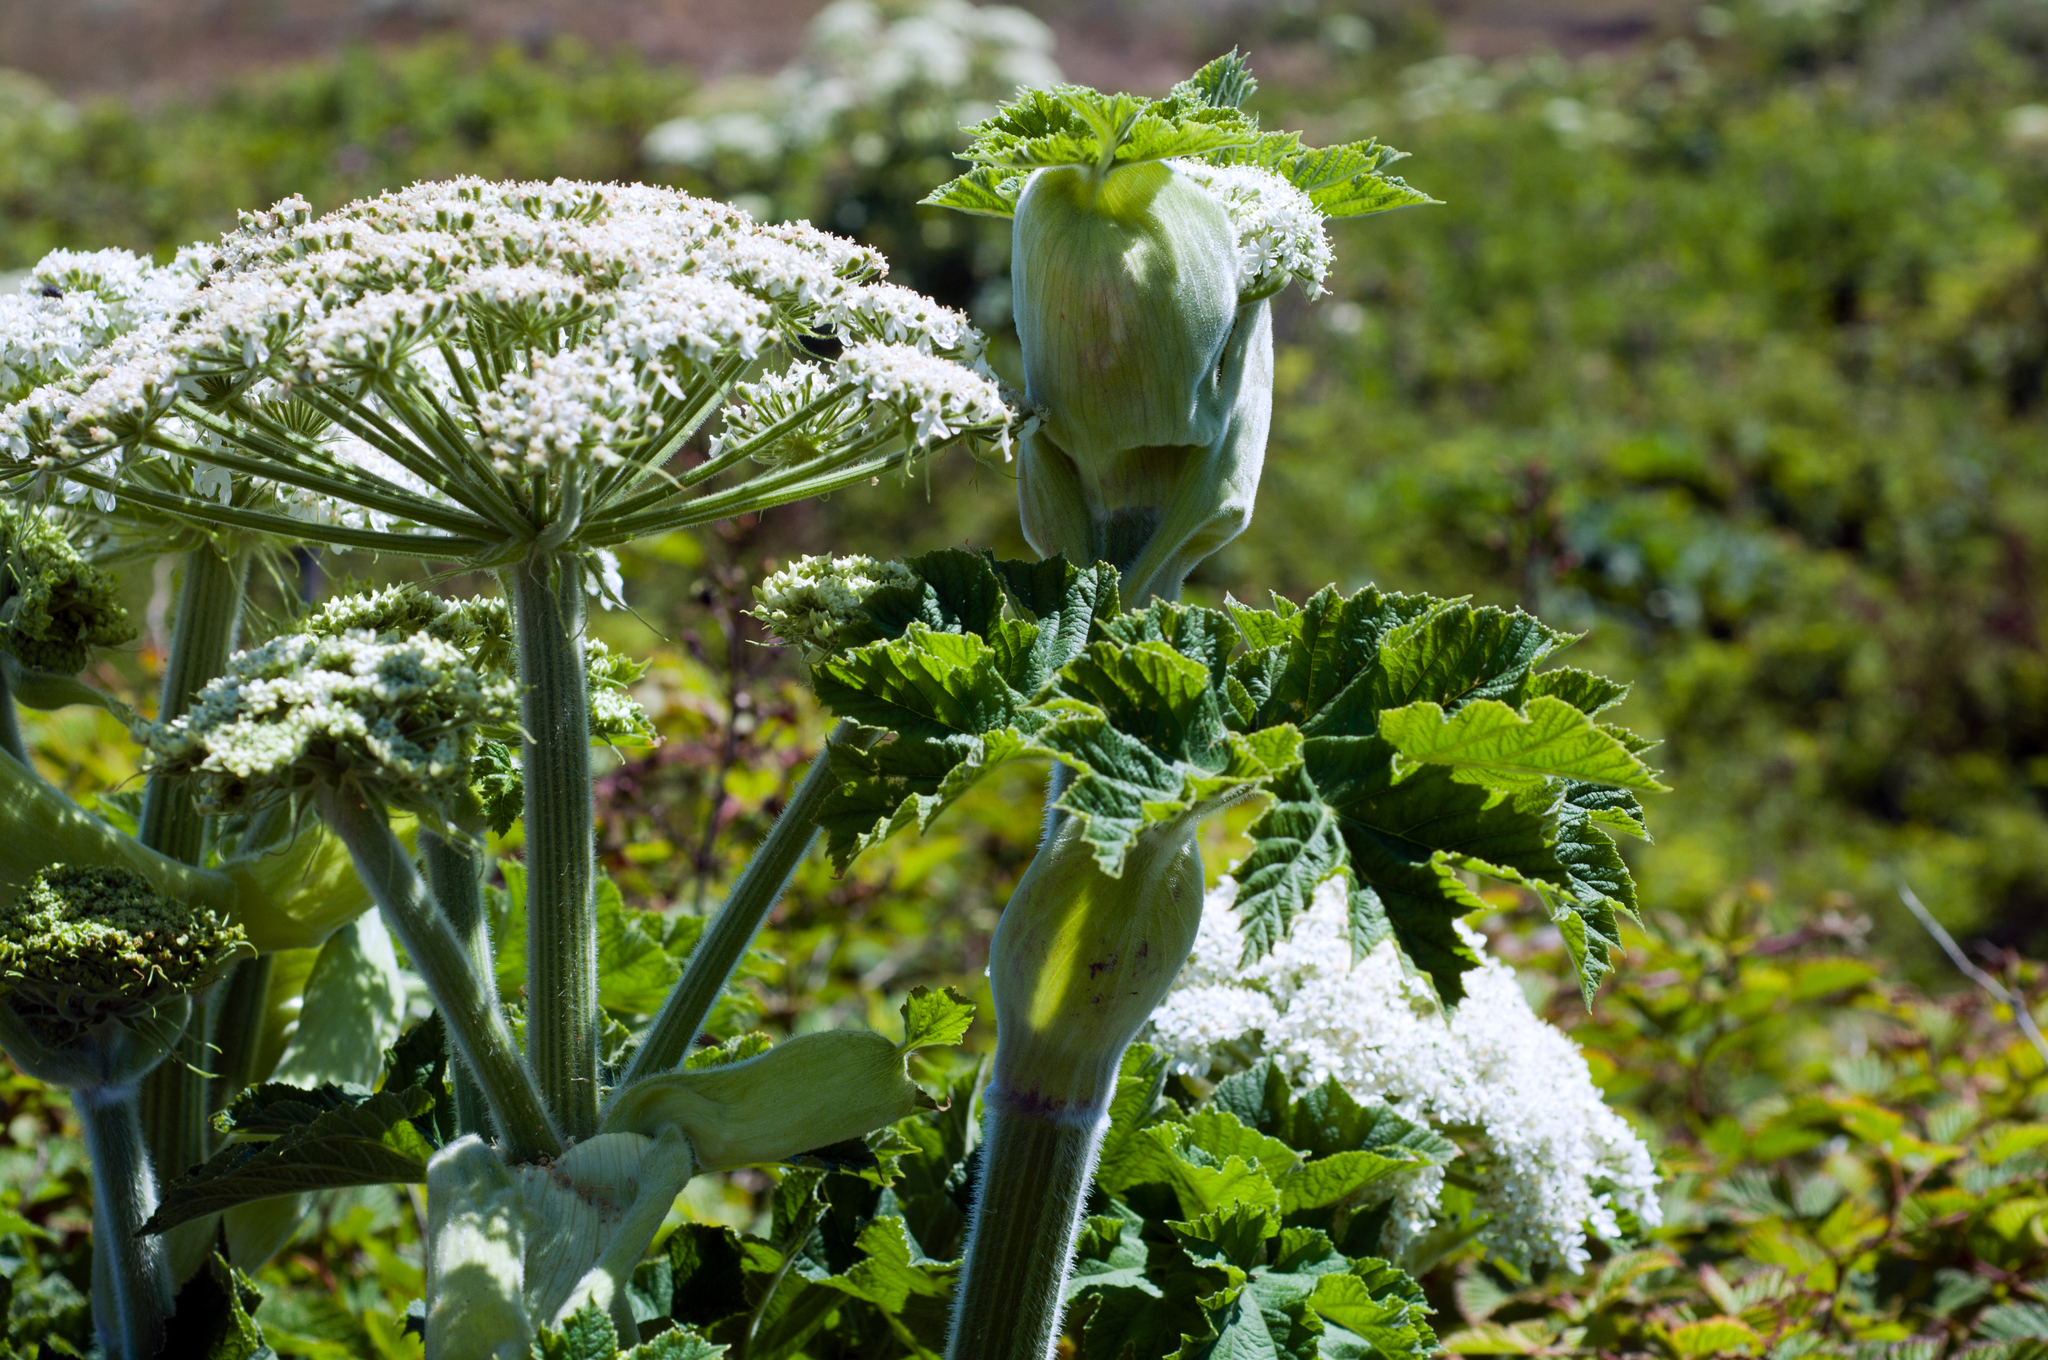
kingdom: Plantae
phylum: Tracheophyta
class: Magnoliopsida
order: Apiales
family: Apiaceae
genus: Heracleum
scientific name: Heracleum maximum
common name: American cow parsnip
